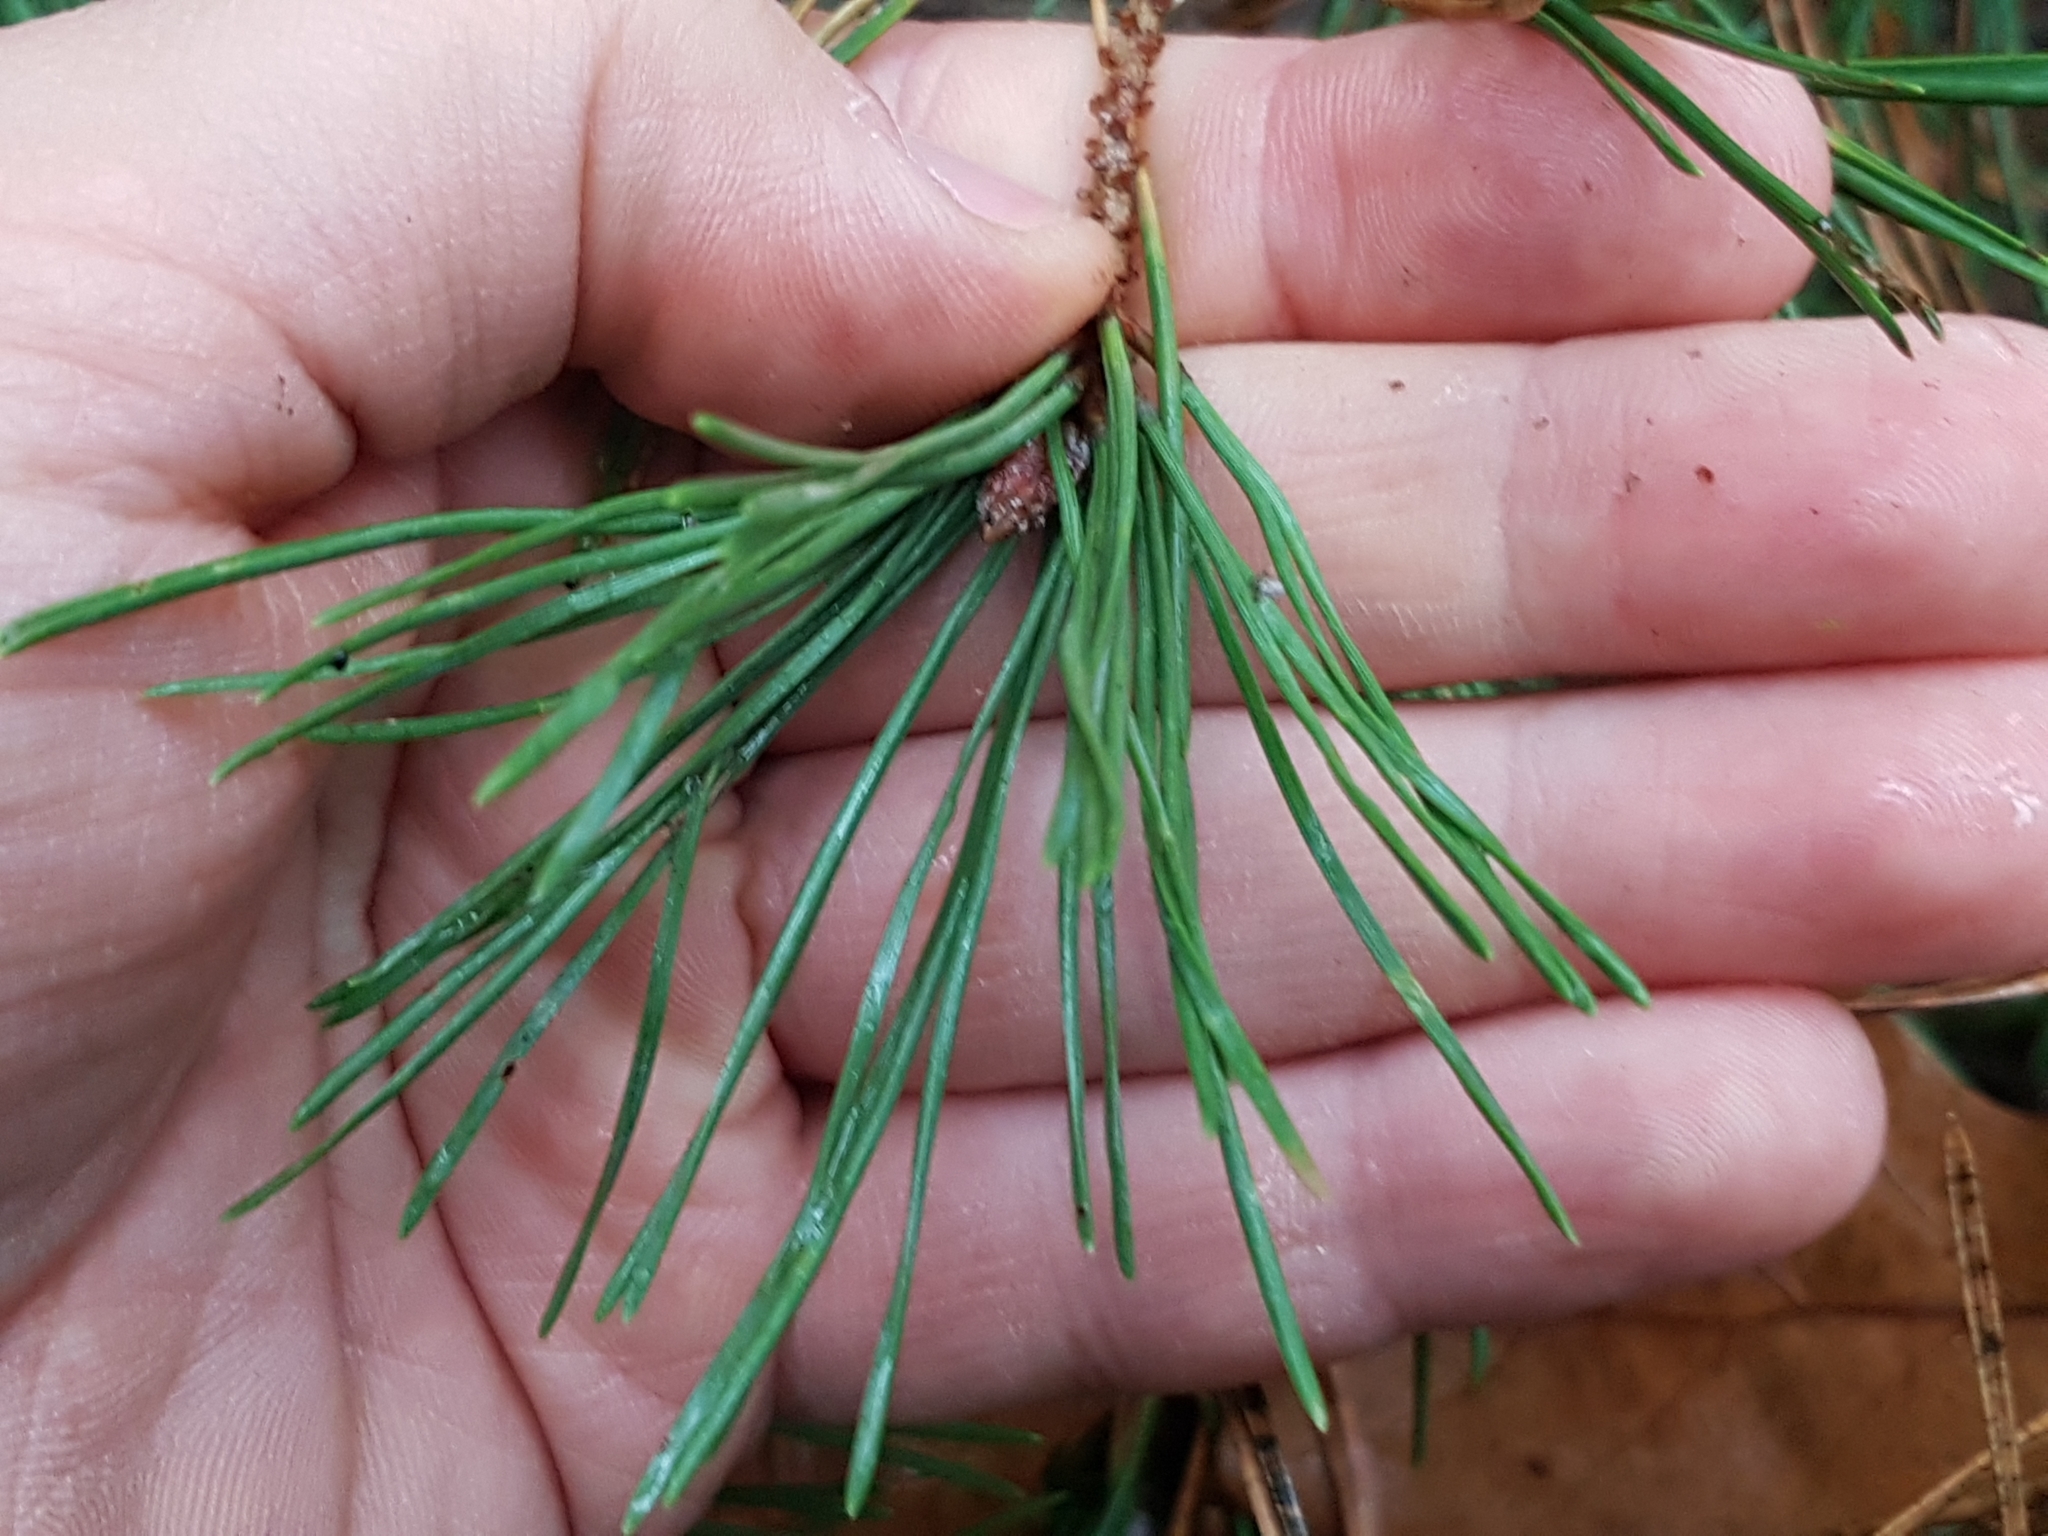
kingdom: Plantae
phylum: Tracheophyta
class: Pinopsida
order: Pinales
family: Pinaceae
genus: Pinus
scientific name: Pinus sylvestris
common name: Scots pine
